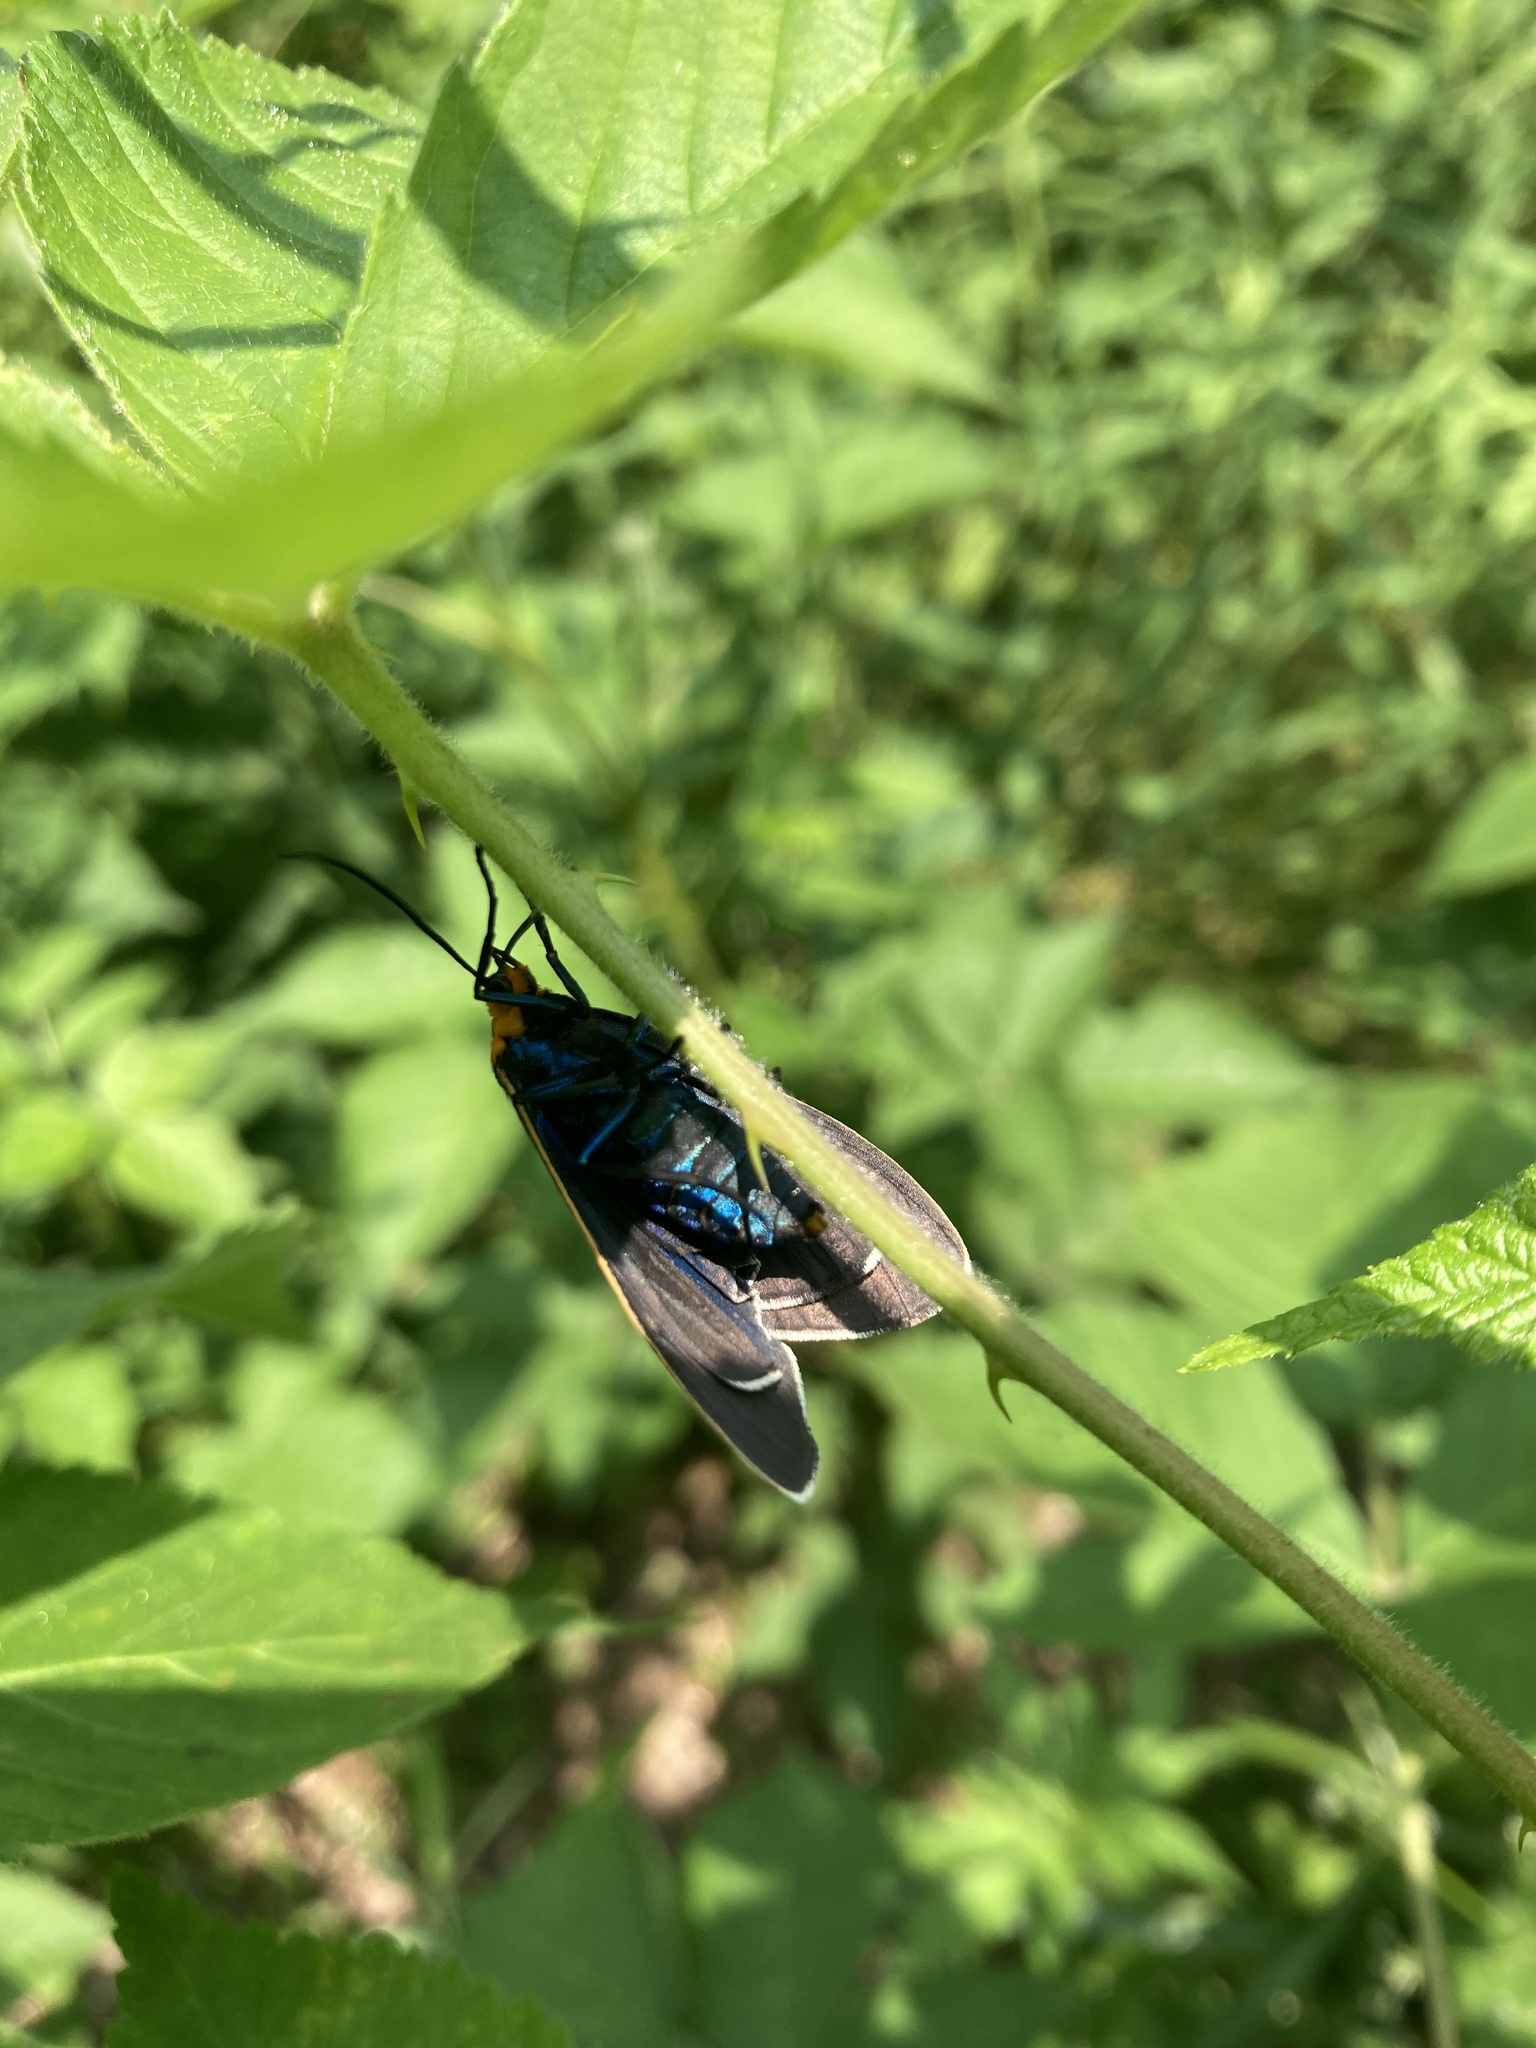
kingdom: Animalia
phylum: Arthropoda
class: Insecta
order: Lepidoptera
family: Erebidae
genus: Ctenucha
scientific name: Ctenucha virginica
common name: Virginia ctenucha moth
